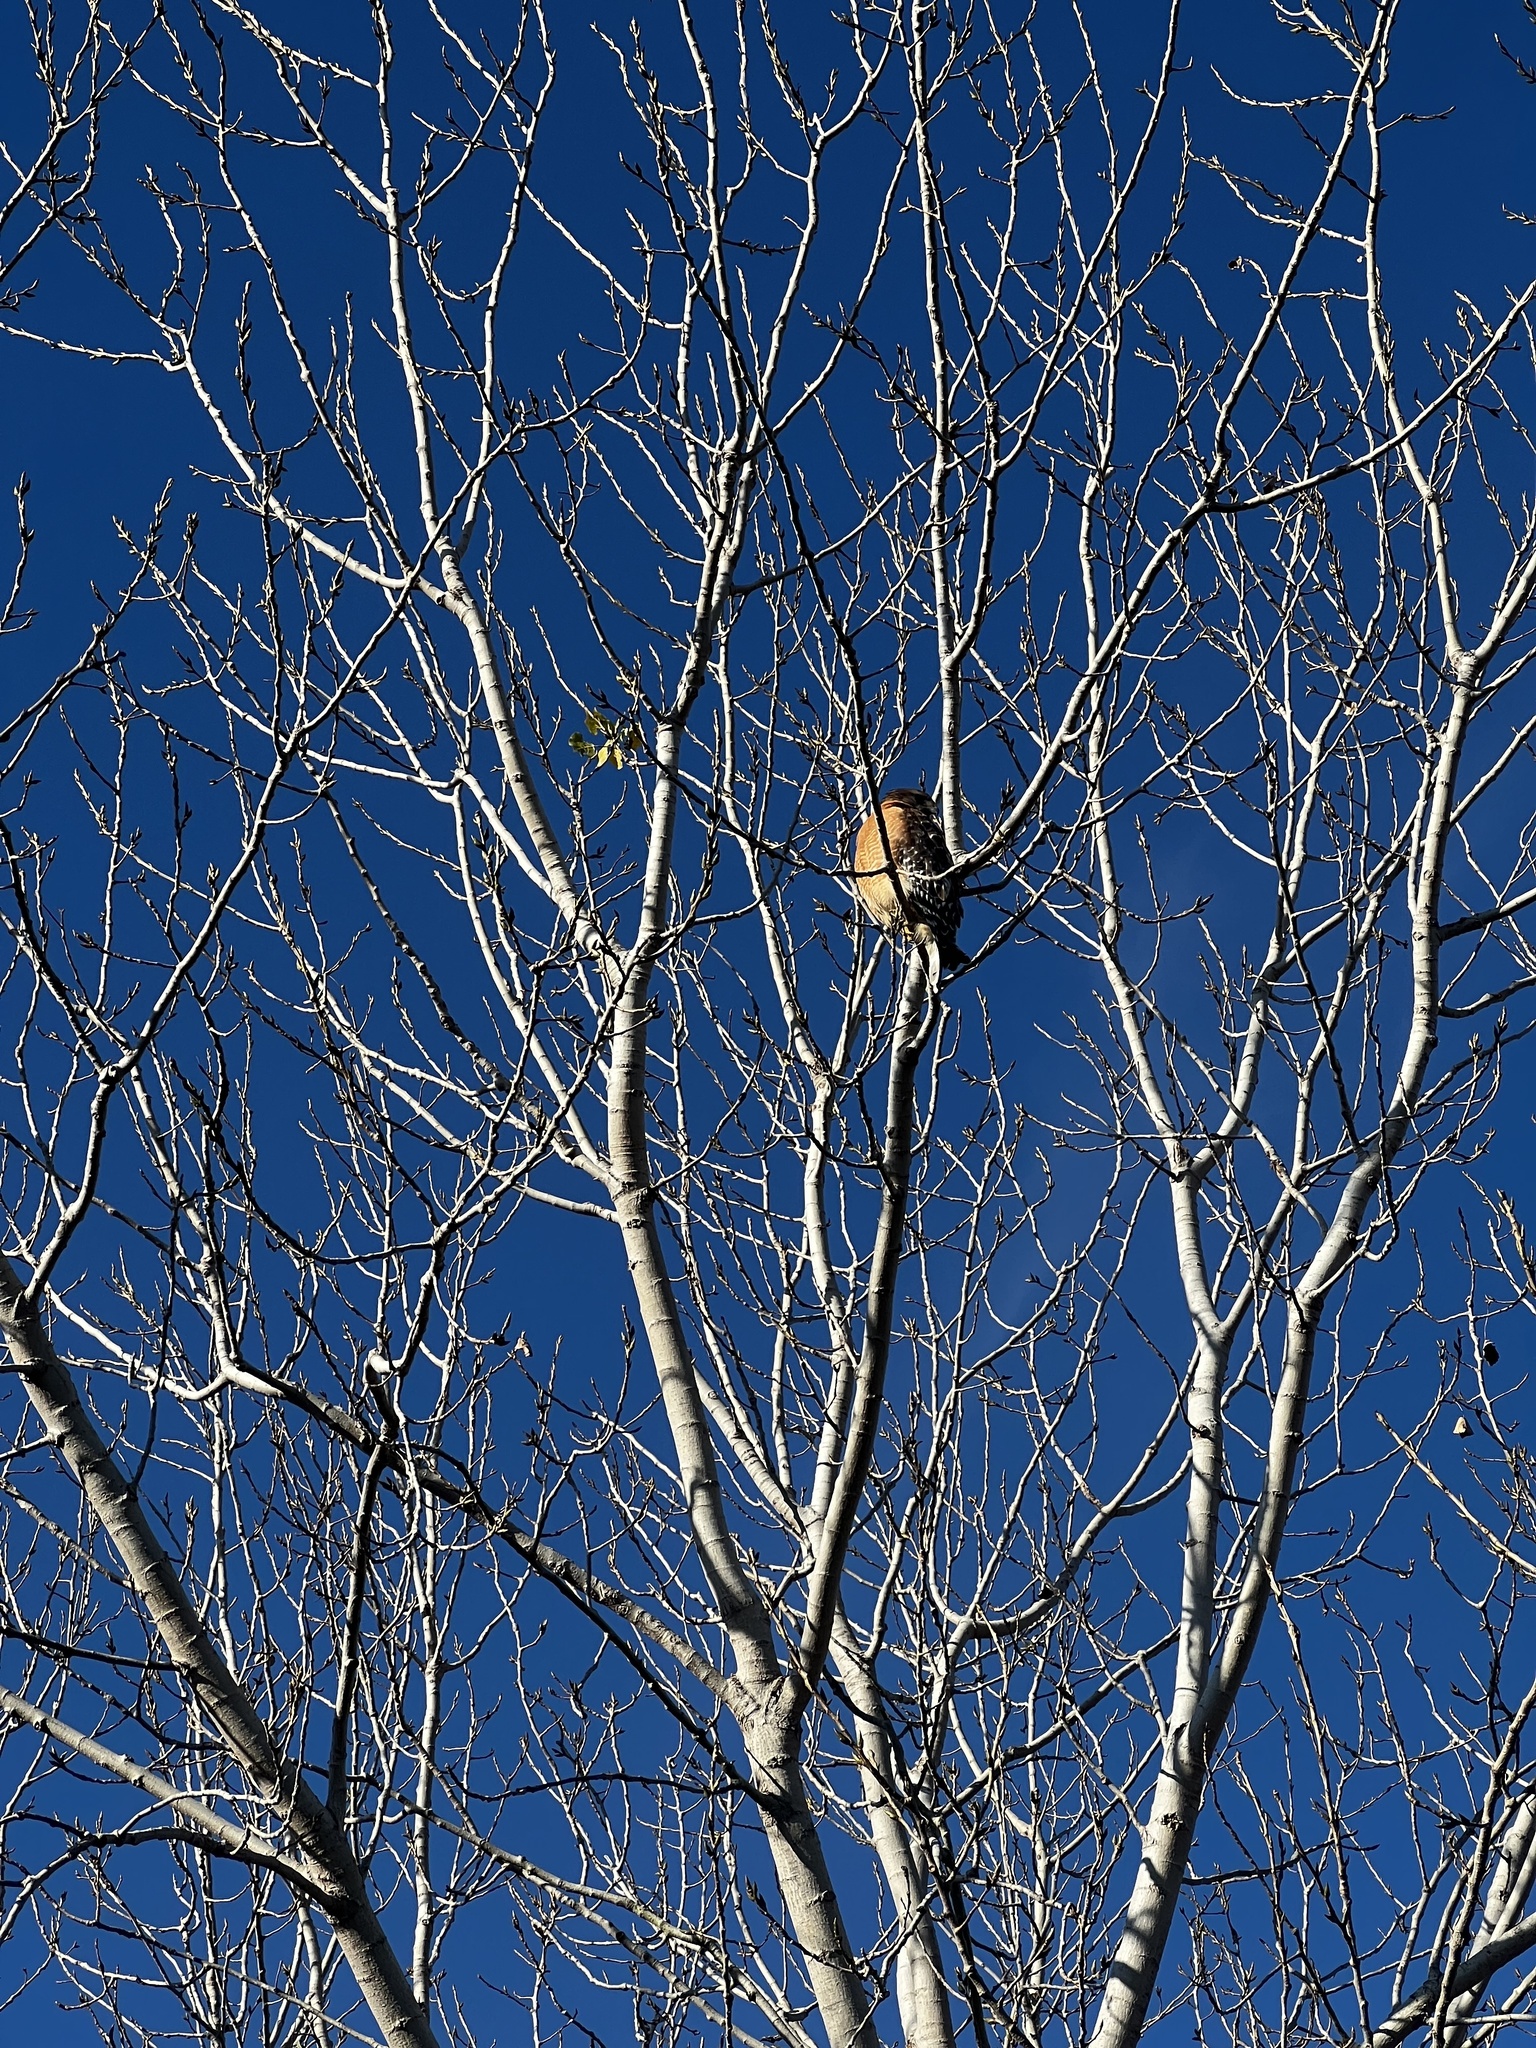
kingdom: Animalia
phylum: Chordata
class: Aves
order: Accipitriformes
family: Accipitridae
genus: Buteo
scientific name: Buteo lineatus
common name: Red-shouldered hawk
